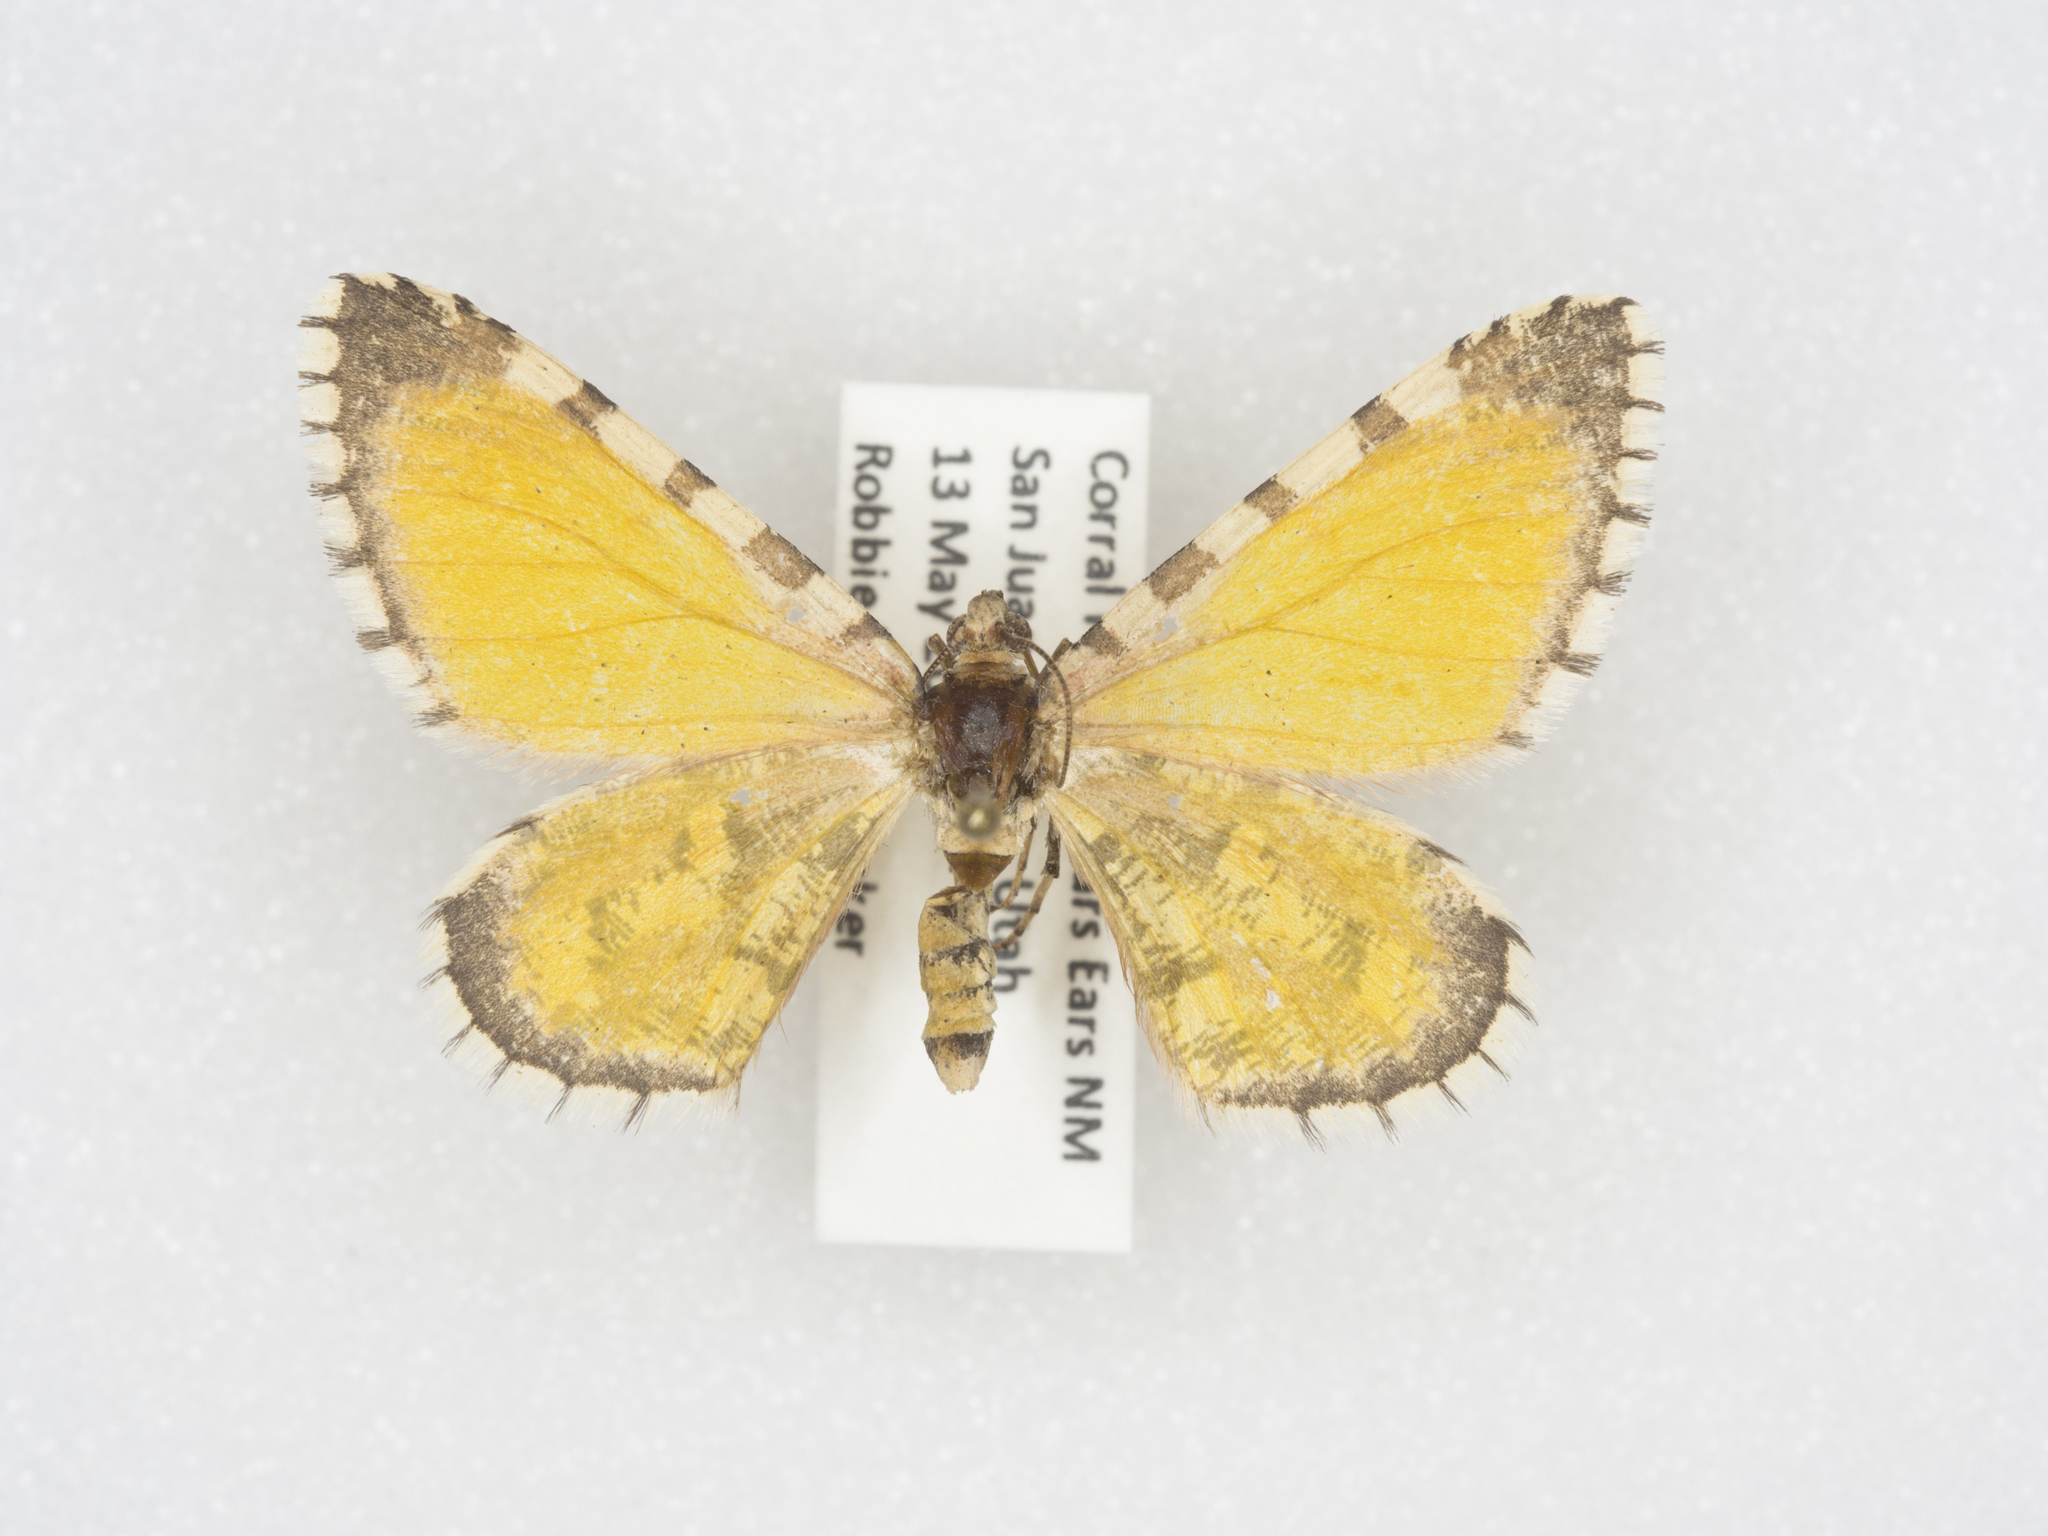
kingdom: Animalia
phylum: Arthropoda
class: Insecta
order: Lepidoptera
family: Geometridae
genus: Stamnodes
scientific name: Stamnodes tessellata
